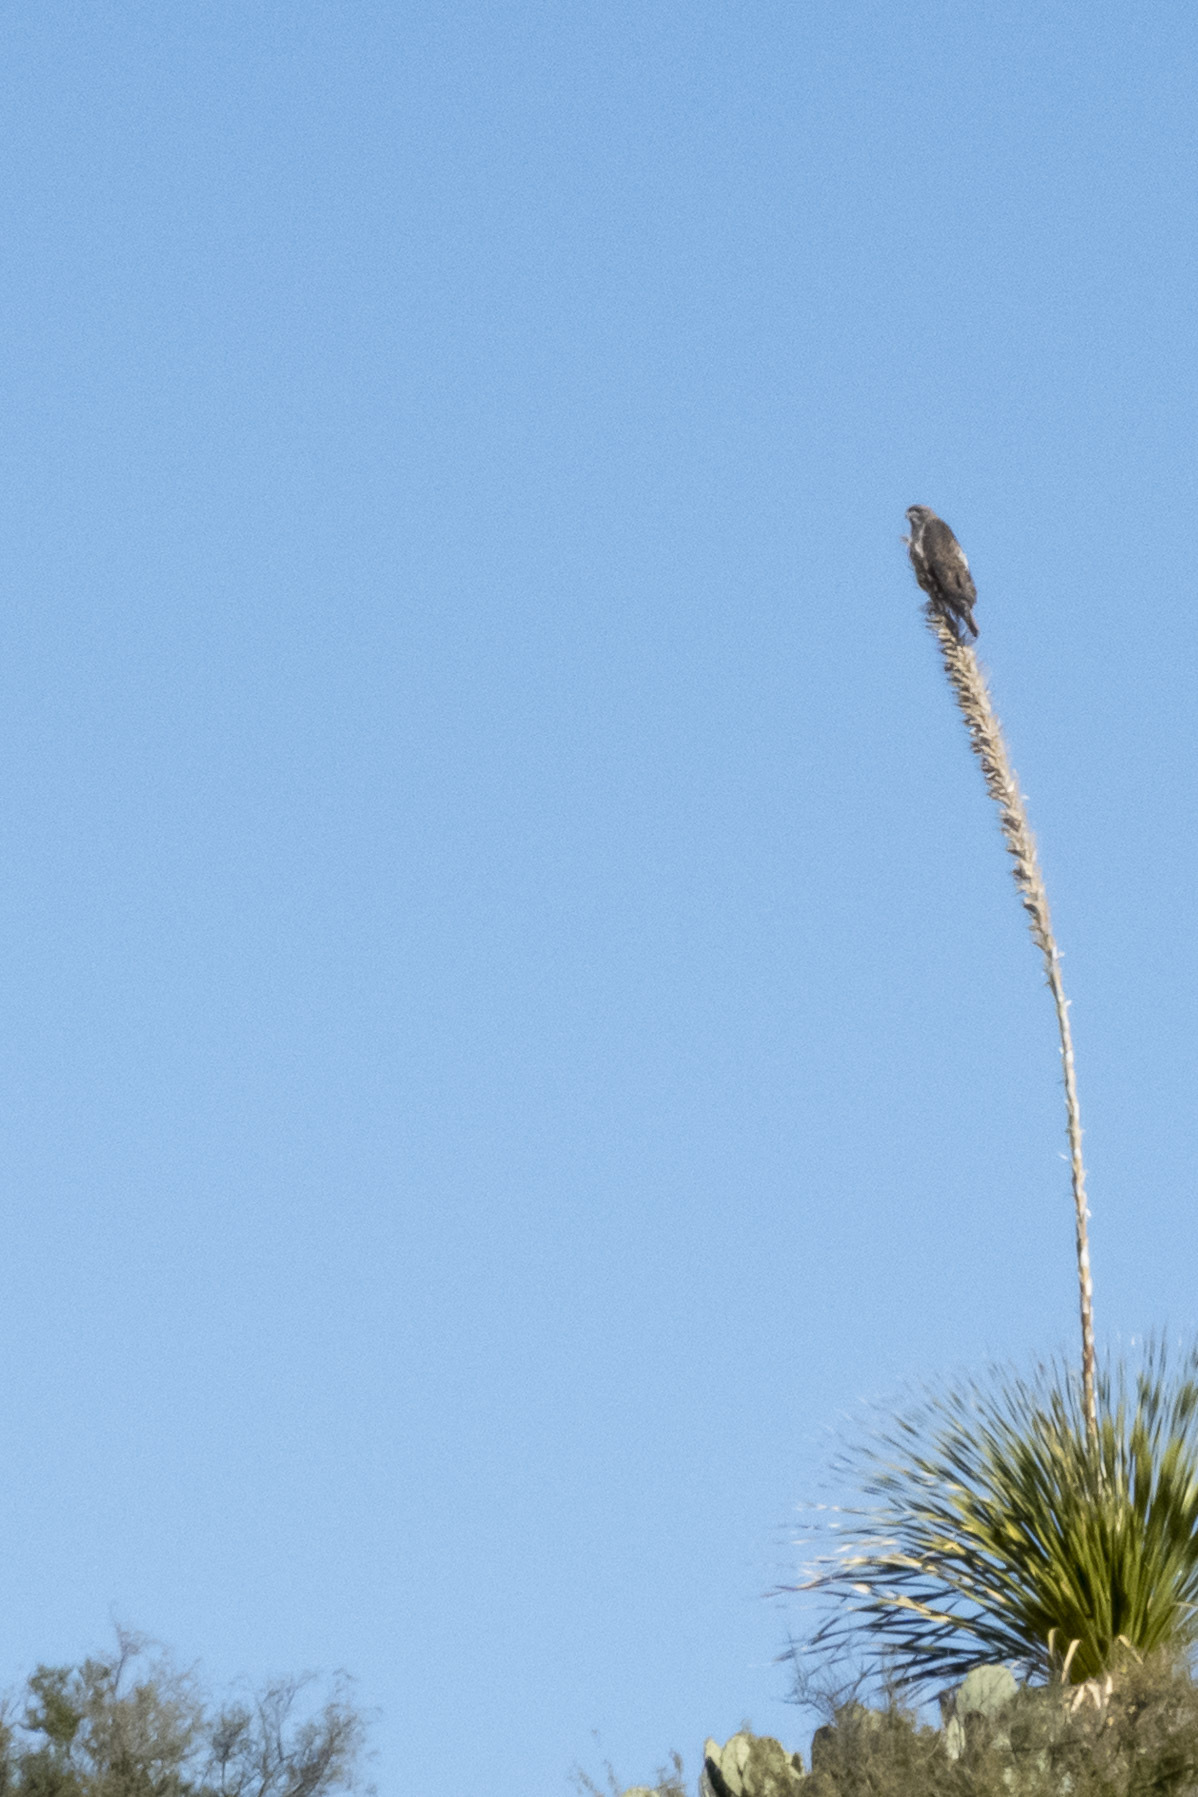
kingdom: Animalia
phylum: Chordata
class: Aves
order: Accipitriformes
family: Accipitridae
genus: Buteo
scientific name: Buteo jamaicensis
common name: Red-tailed hawk
